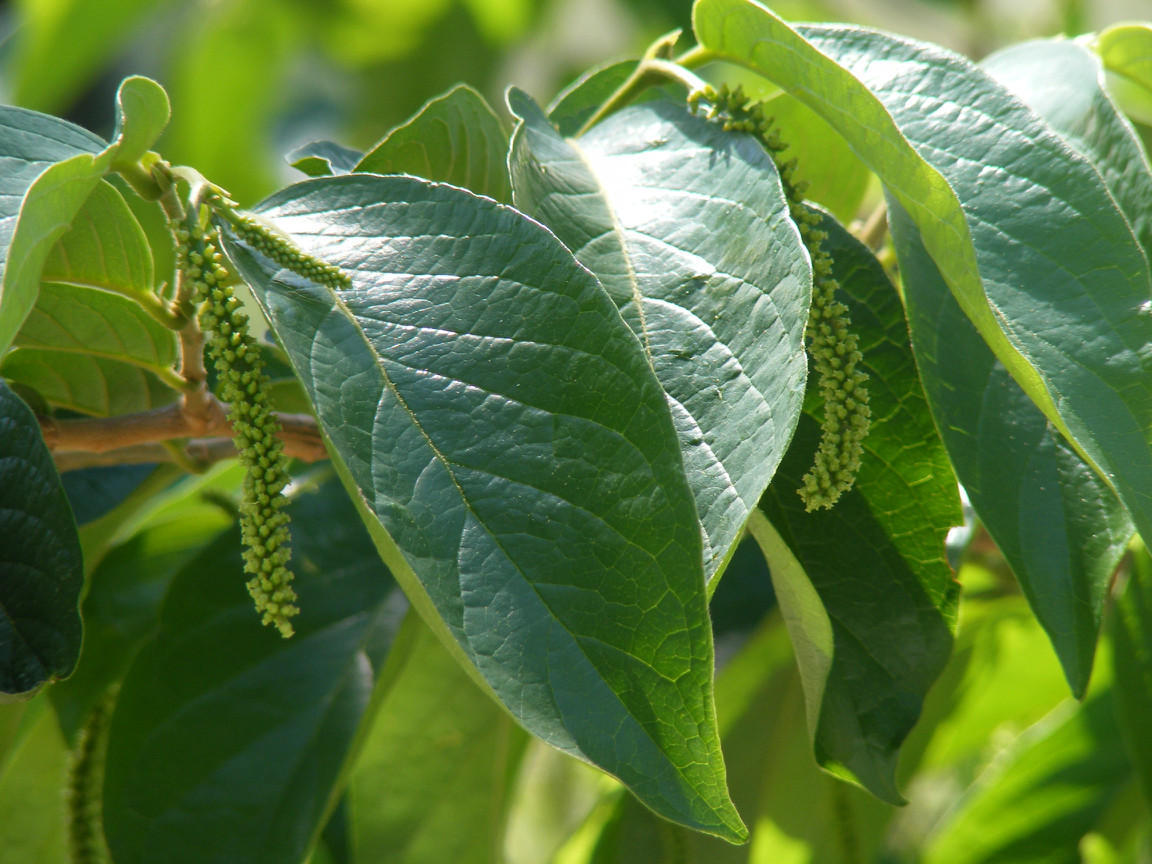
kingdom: Plantae
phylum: Tracheophyta
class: Magnoliopsida
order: Malpighiales
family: Phyllanthaceae
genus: Antidesma
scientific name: Antidesma venosum
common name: Tassel-berry
